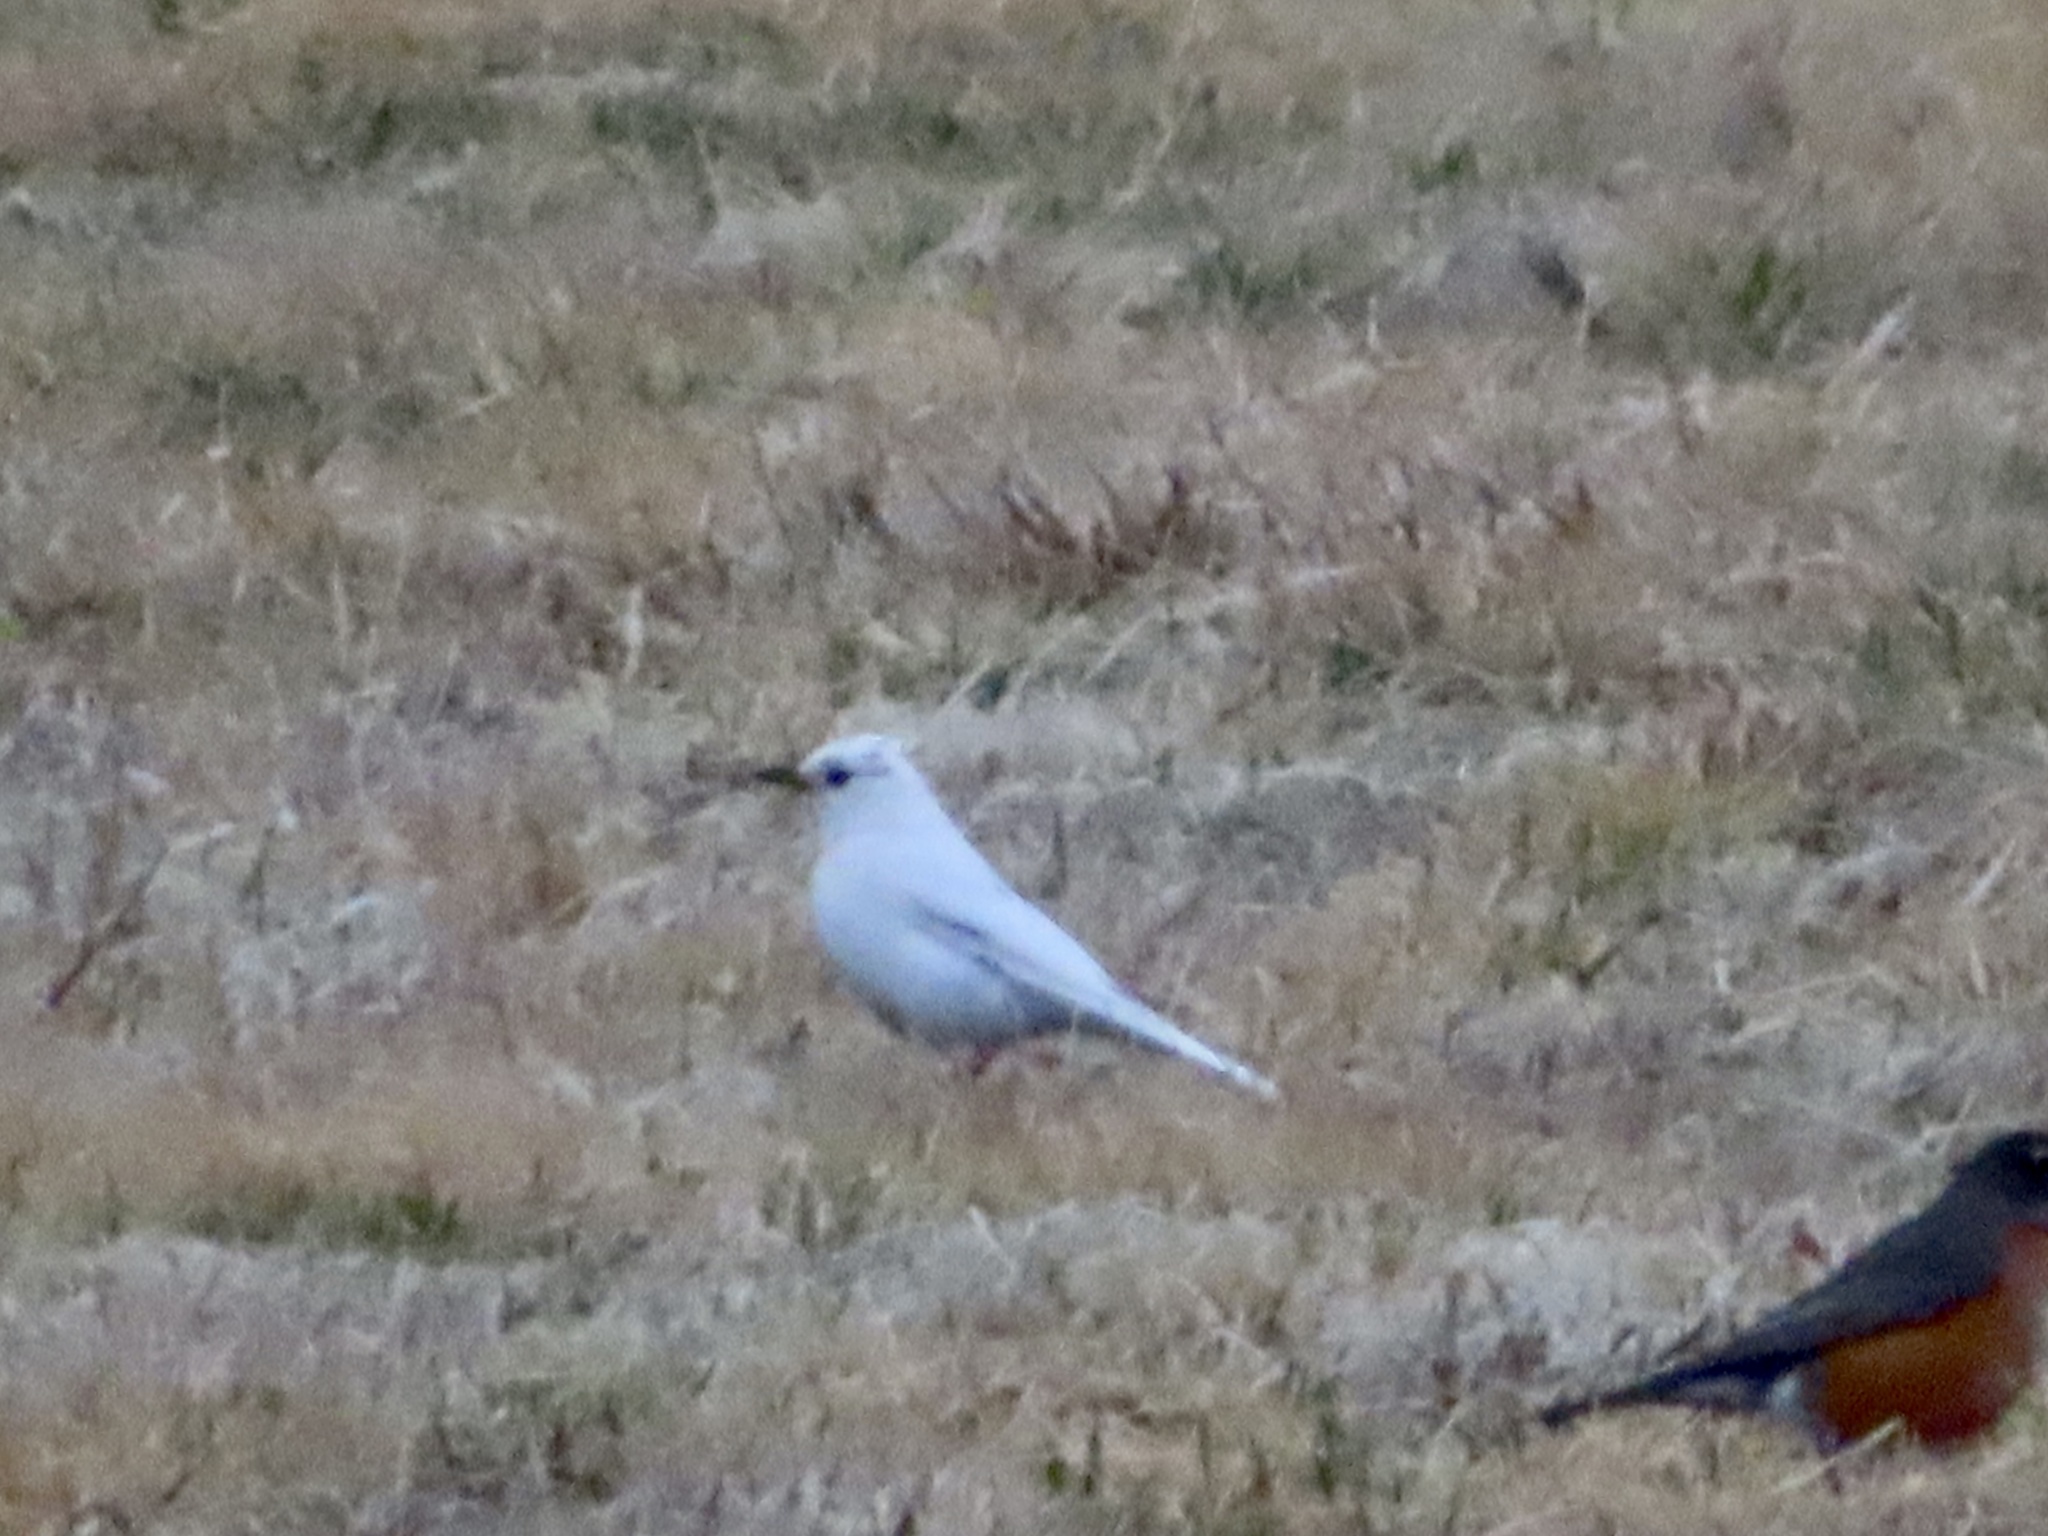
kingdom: Animalia
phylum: Chordata
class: Aves
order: Passeriformes
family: Turdidae
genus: Turdus
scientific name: Turdus migratorius
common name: American robin
